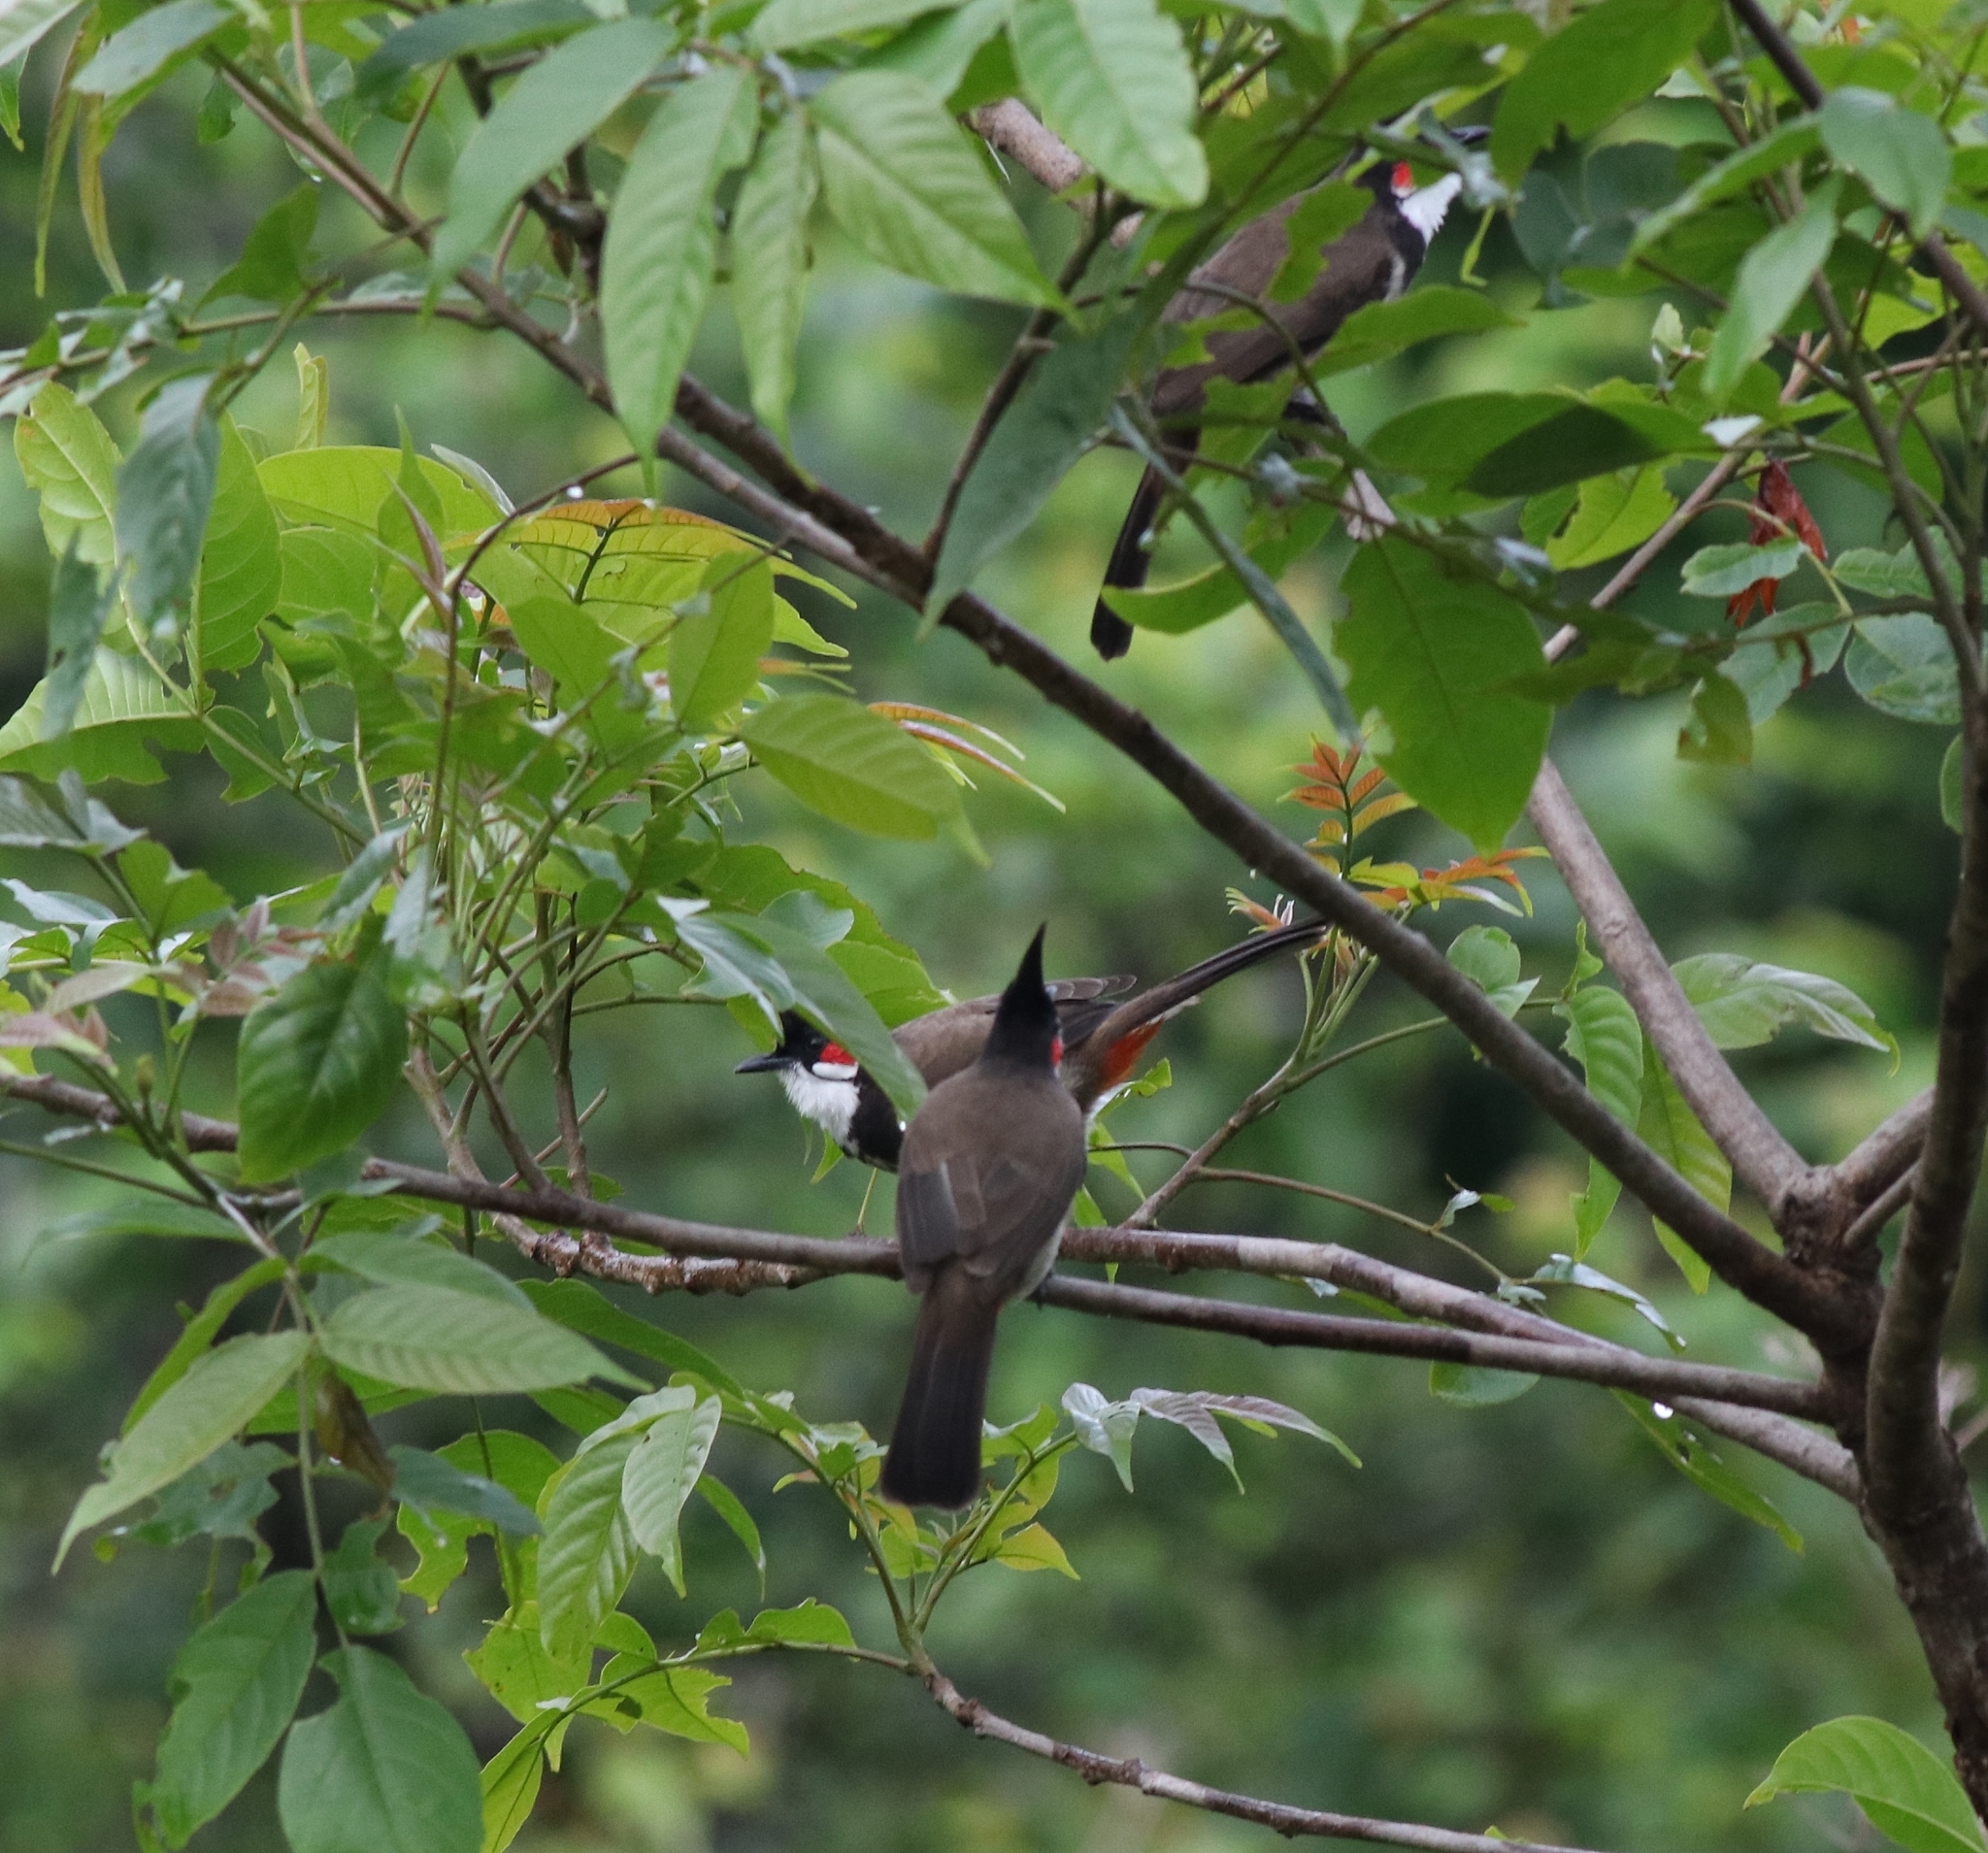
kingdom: Animalia
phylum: Chordata
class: Aves
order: Passeriformes
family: Pycnonotidae
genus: Pycnonotus
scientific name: Pycnonotus jocosus
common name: Red-whiskered bulbul
